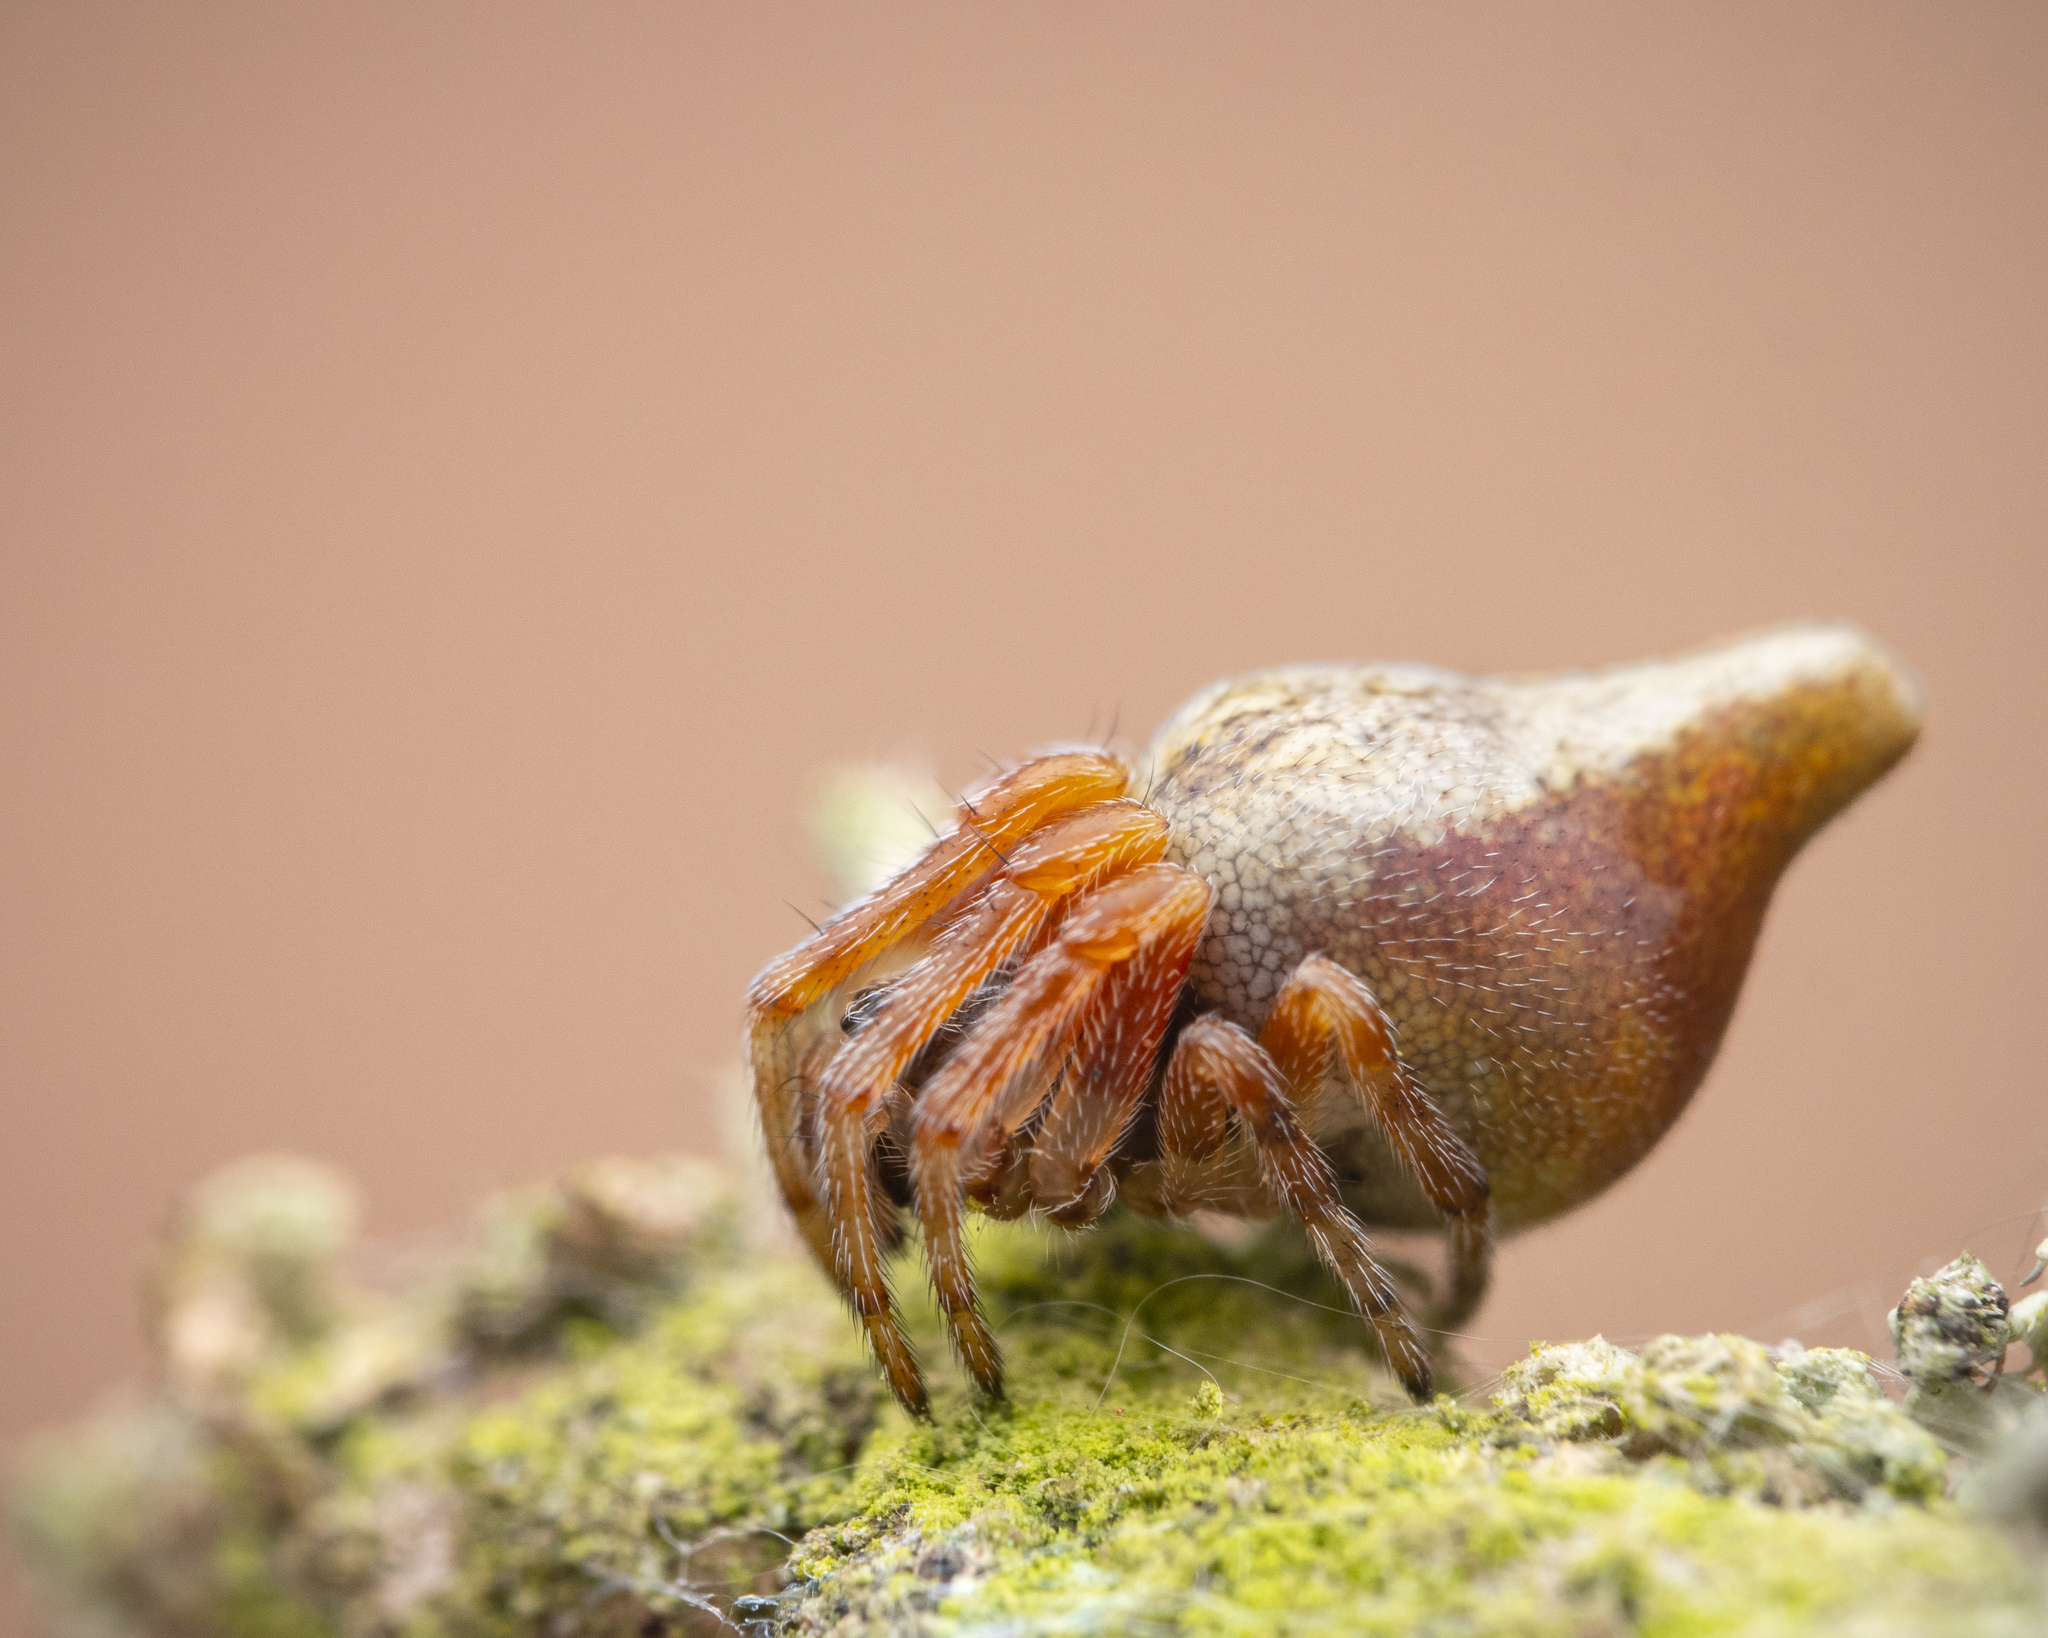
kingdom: Animalia
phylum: Arthropoda
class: Arachnida
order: Araneae
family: Araneidae
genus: Cyclosa
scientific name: Cyclosa conica
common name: Conical trashline orbweaver
